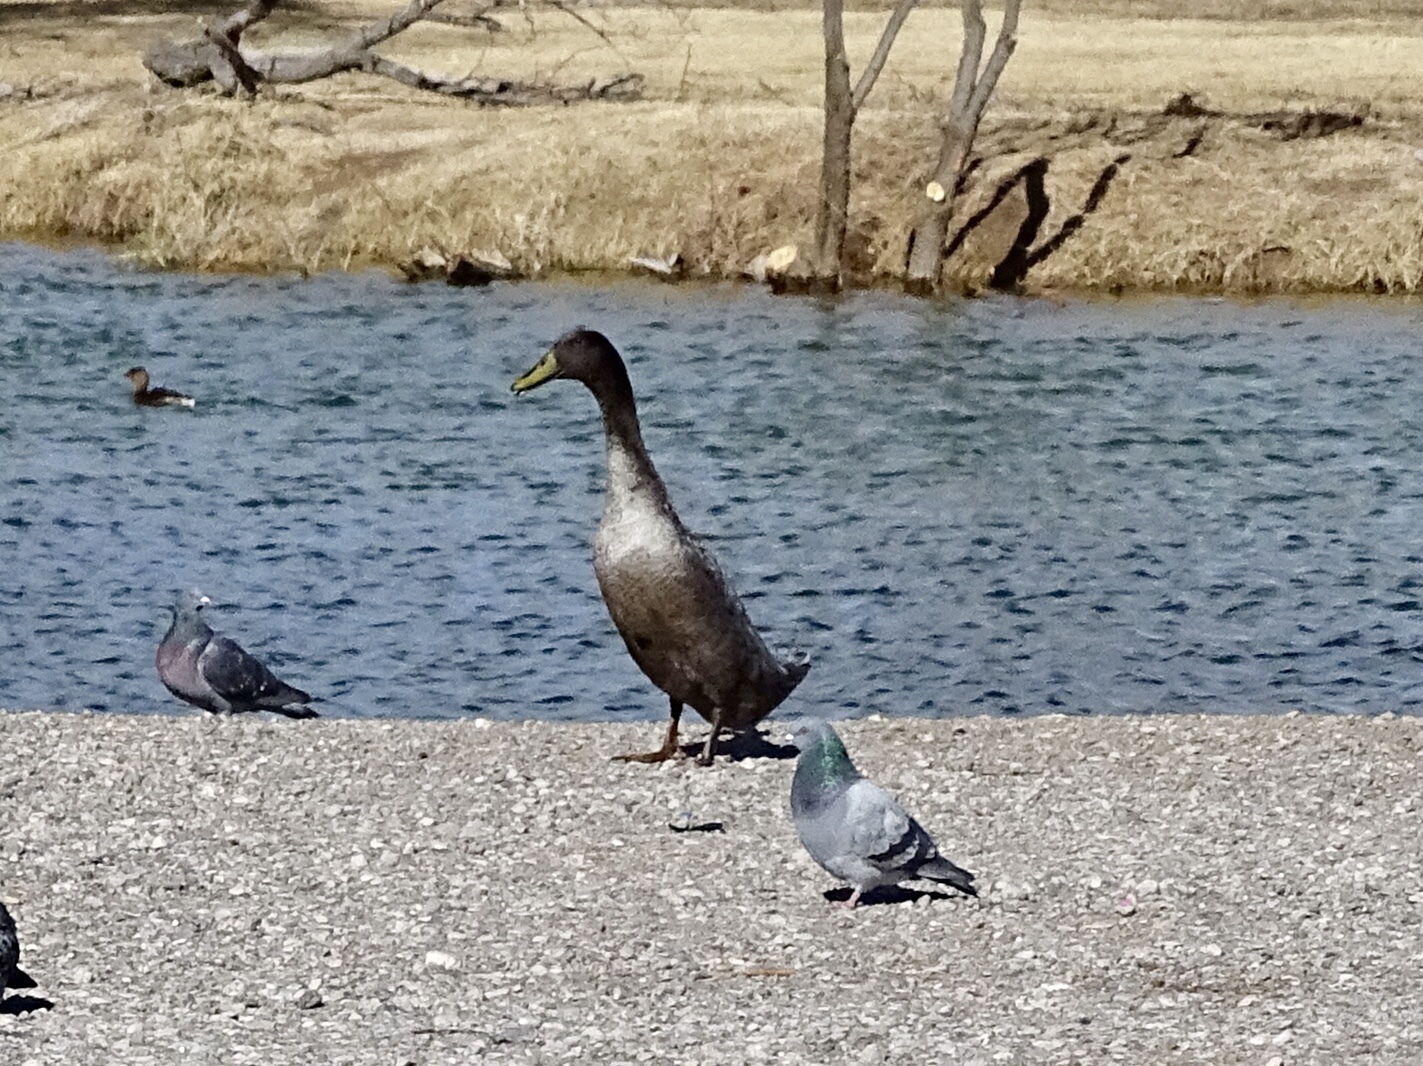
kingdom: Animalia
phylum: Chordata
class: Aves
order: Anseriformes
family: Anatidae
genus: Anas
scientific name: Anas platyrhynchos
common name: Mallard
